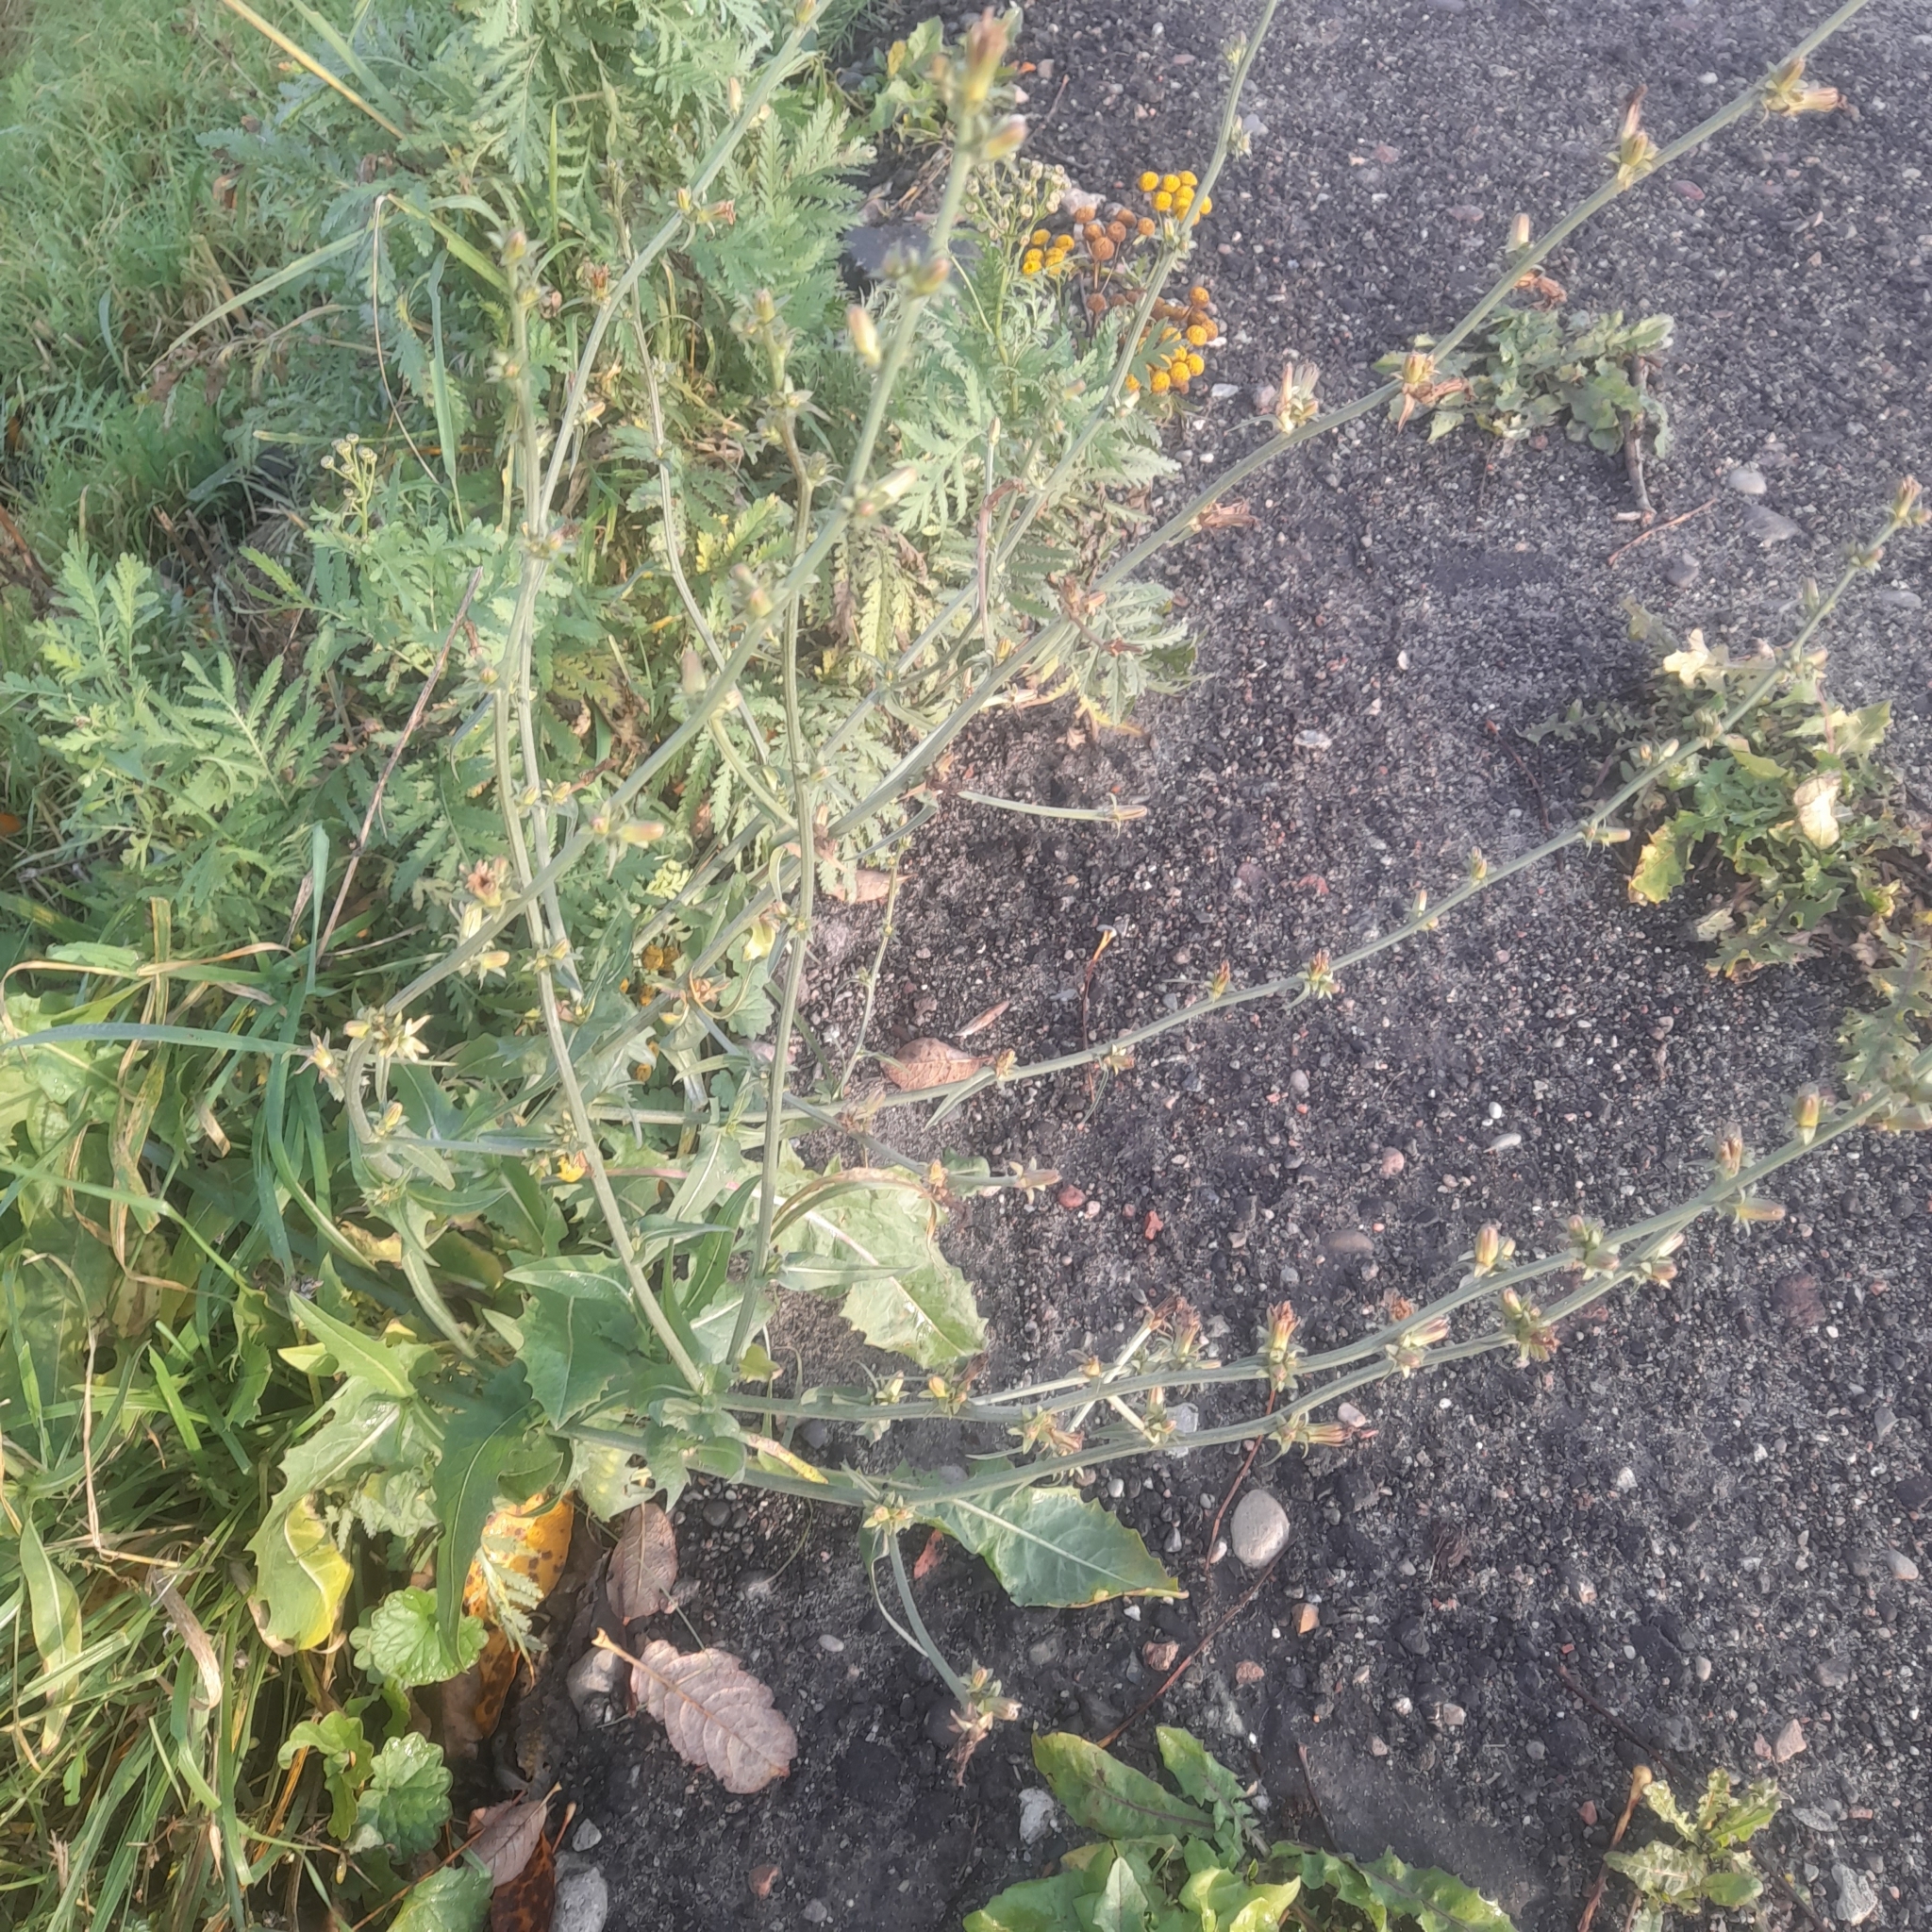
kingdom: Plantae
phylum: Tracheophyta
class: Magnoliopsida
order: Asterales
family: Asteraceae
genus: Cichorium
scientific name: Cichorium intybus
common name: Chicory
